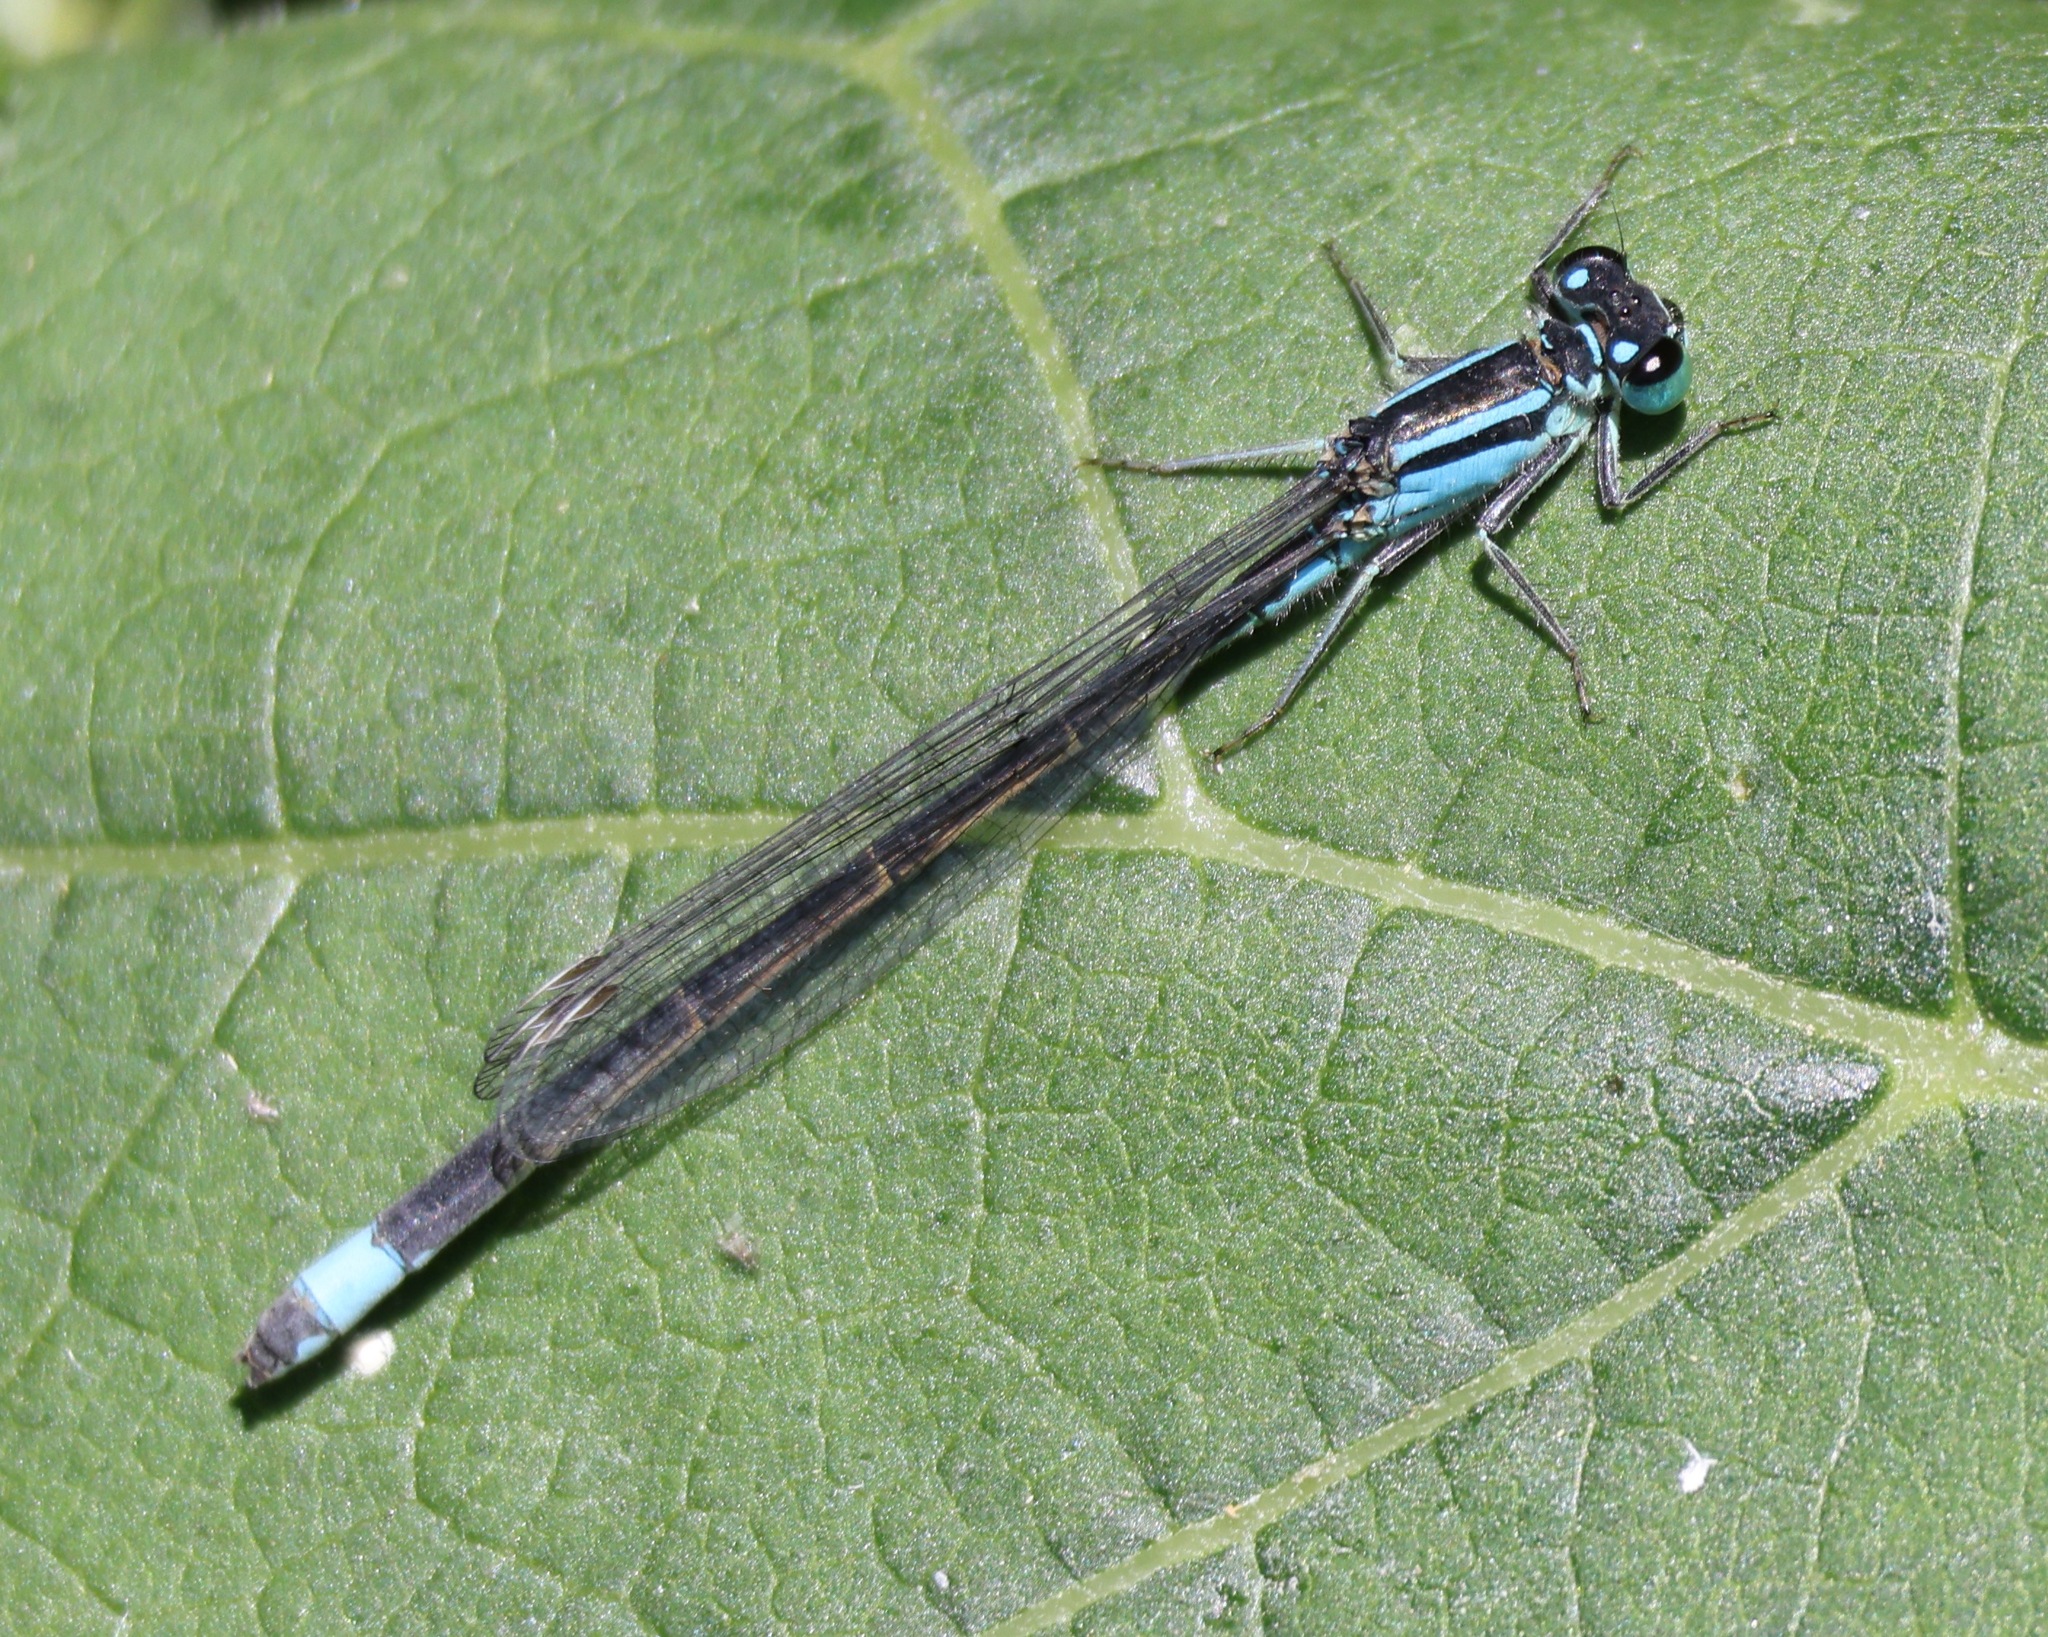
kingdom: Animalia
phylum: Arthropoda
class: Insecta
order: Odonata
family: Coenagrionidae
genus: Ischnura
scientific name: Ischnura elegans
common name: Blue-tailed damselfly
